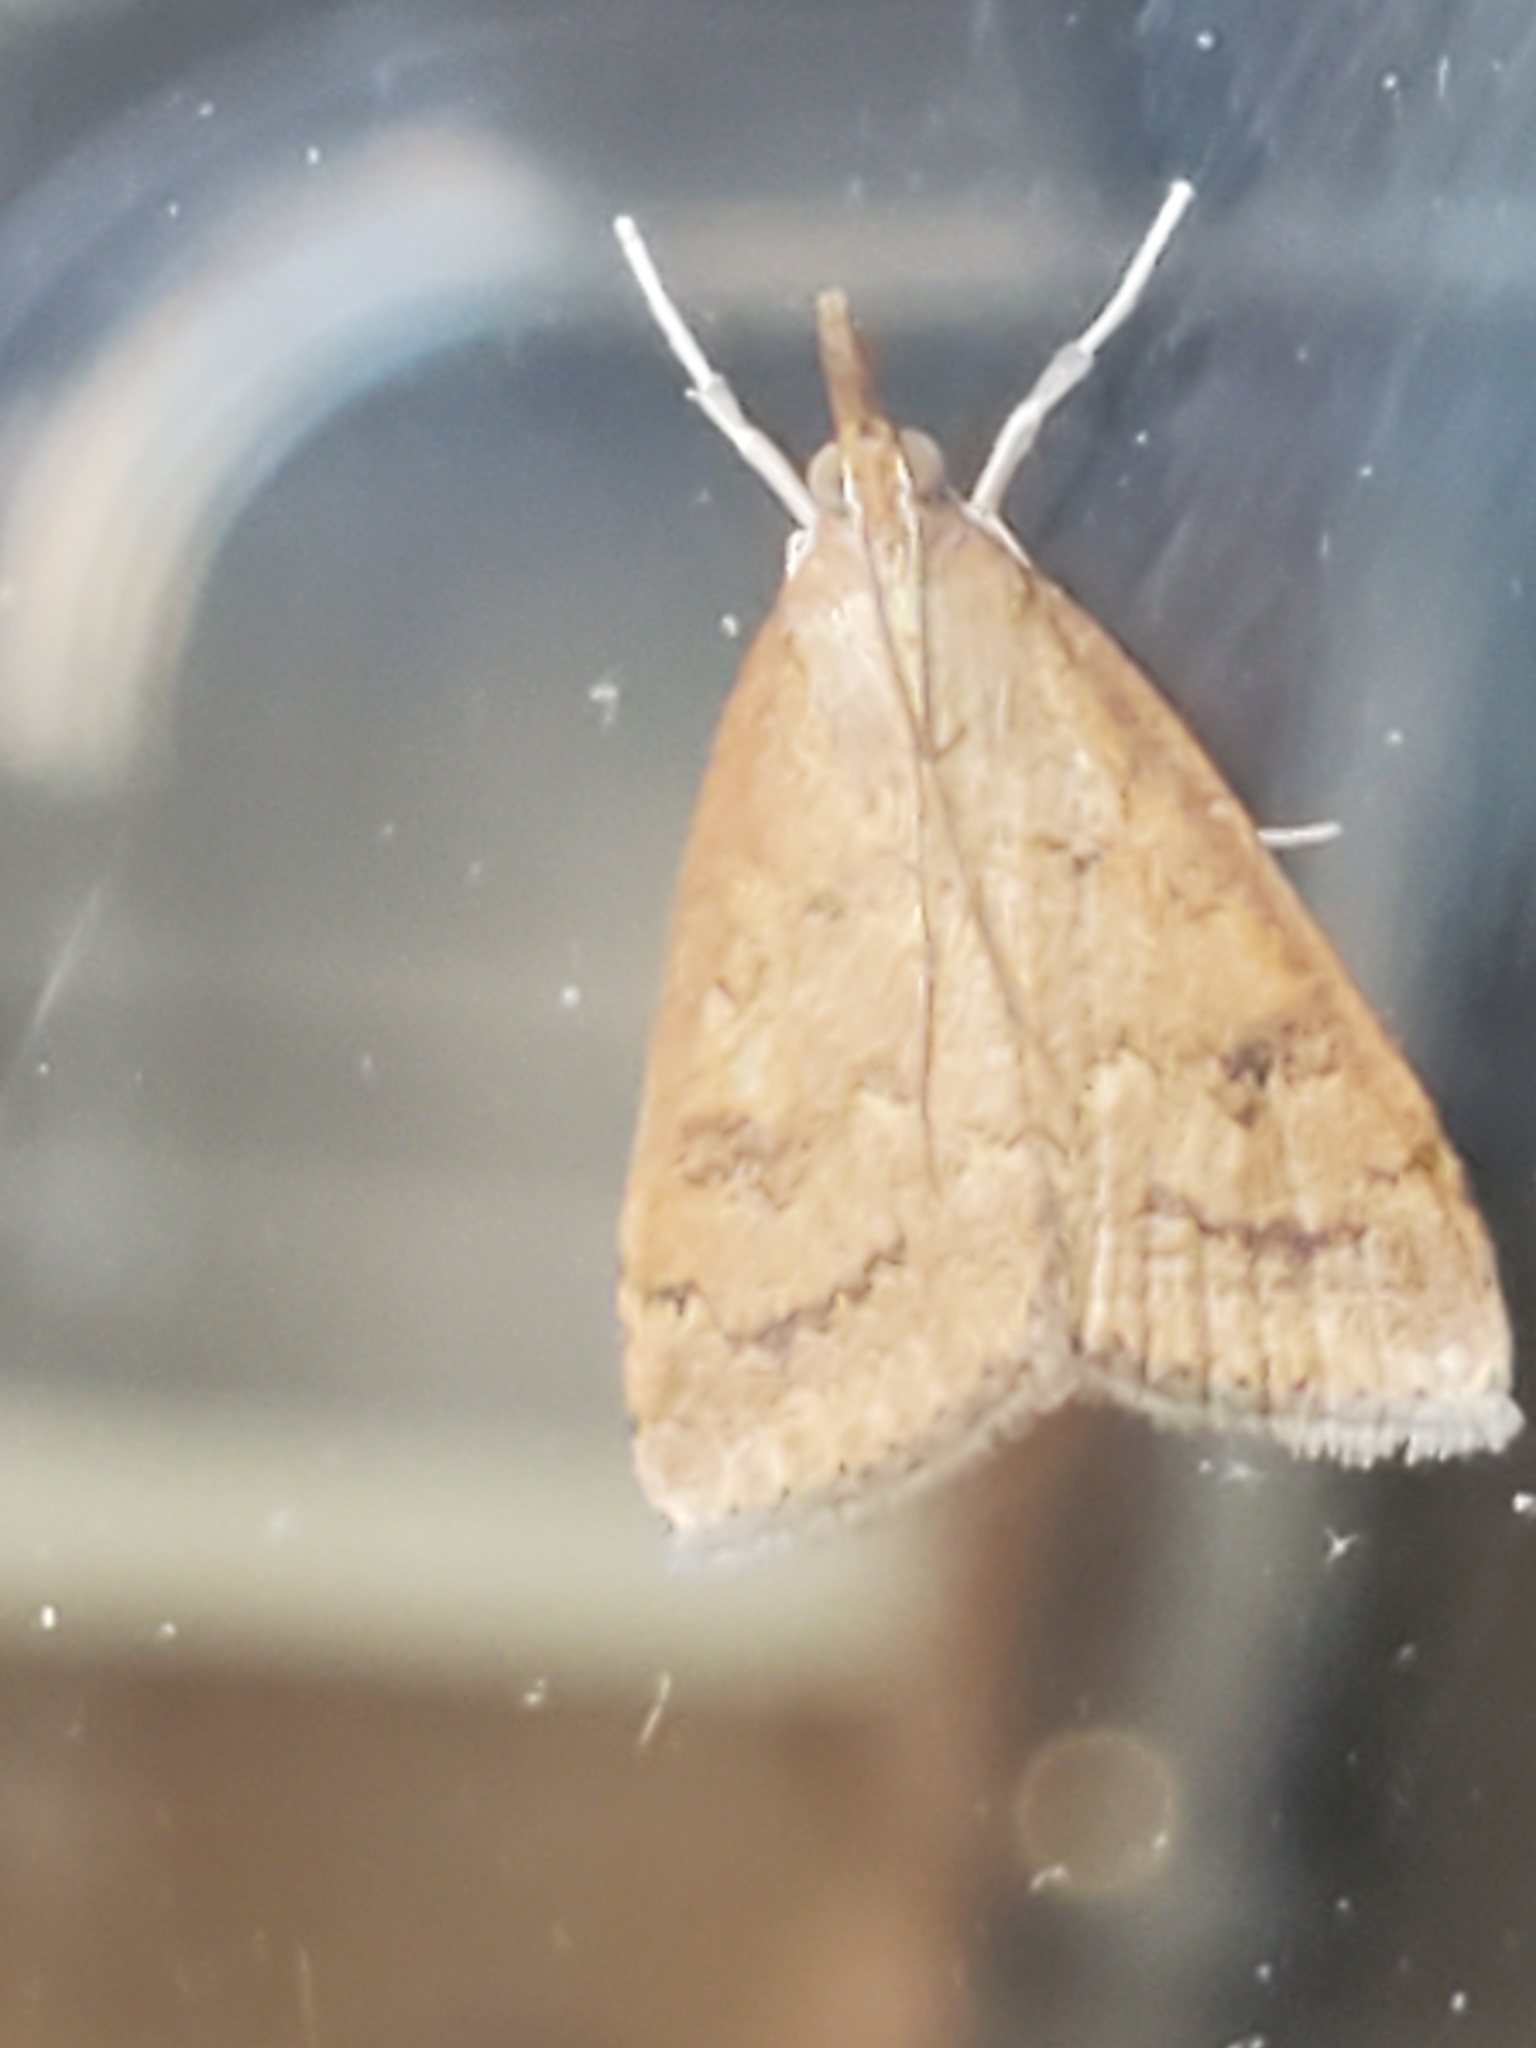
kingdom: Animalia
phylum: Arthropoda
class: Insecta
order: Lepidoptera
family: Crambidae
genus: Udea
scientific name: Udea rubigalis
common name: Celery leaftier moth
